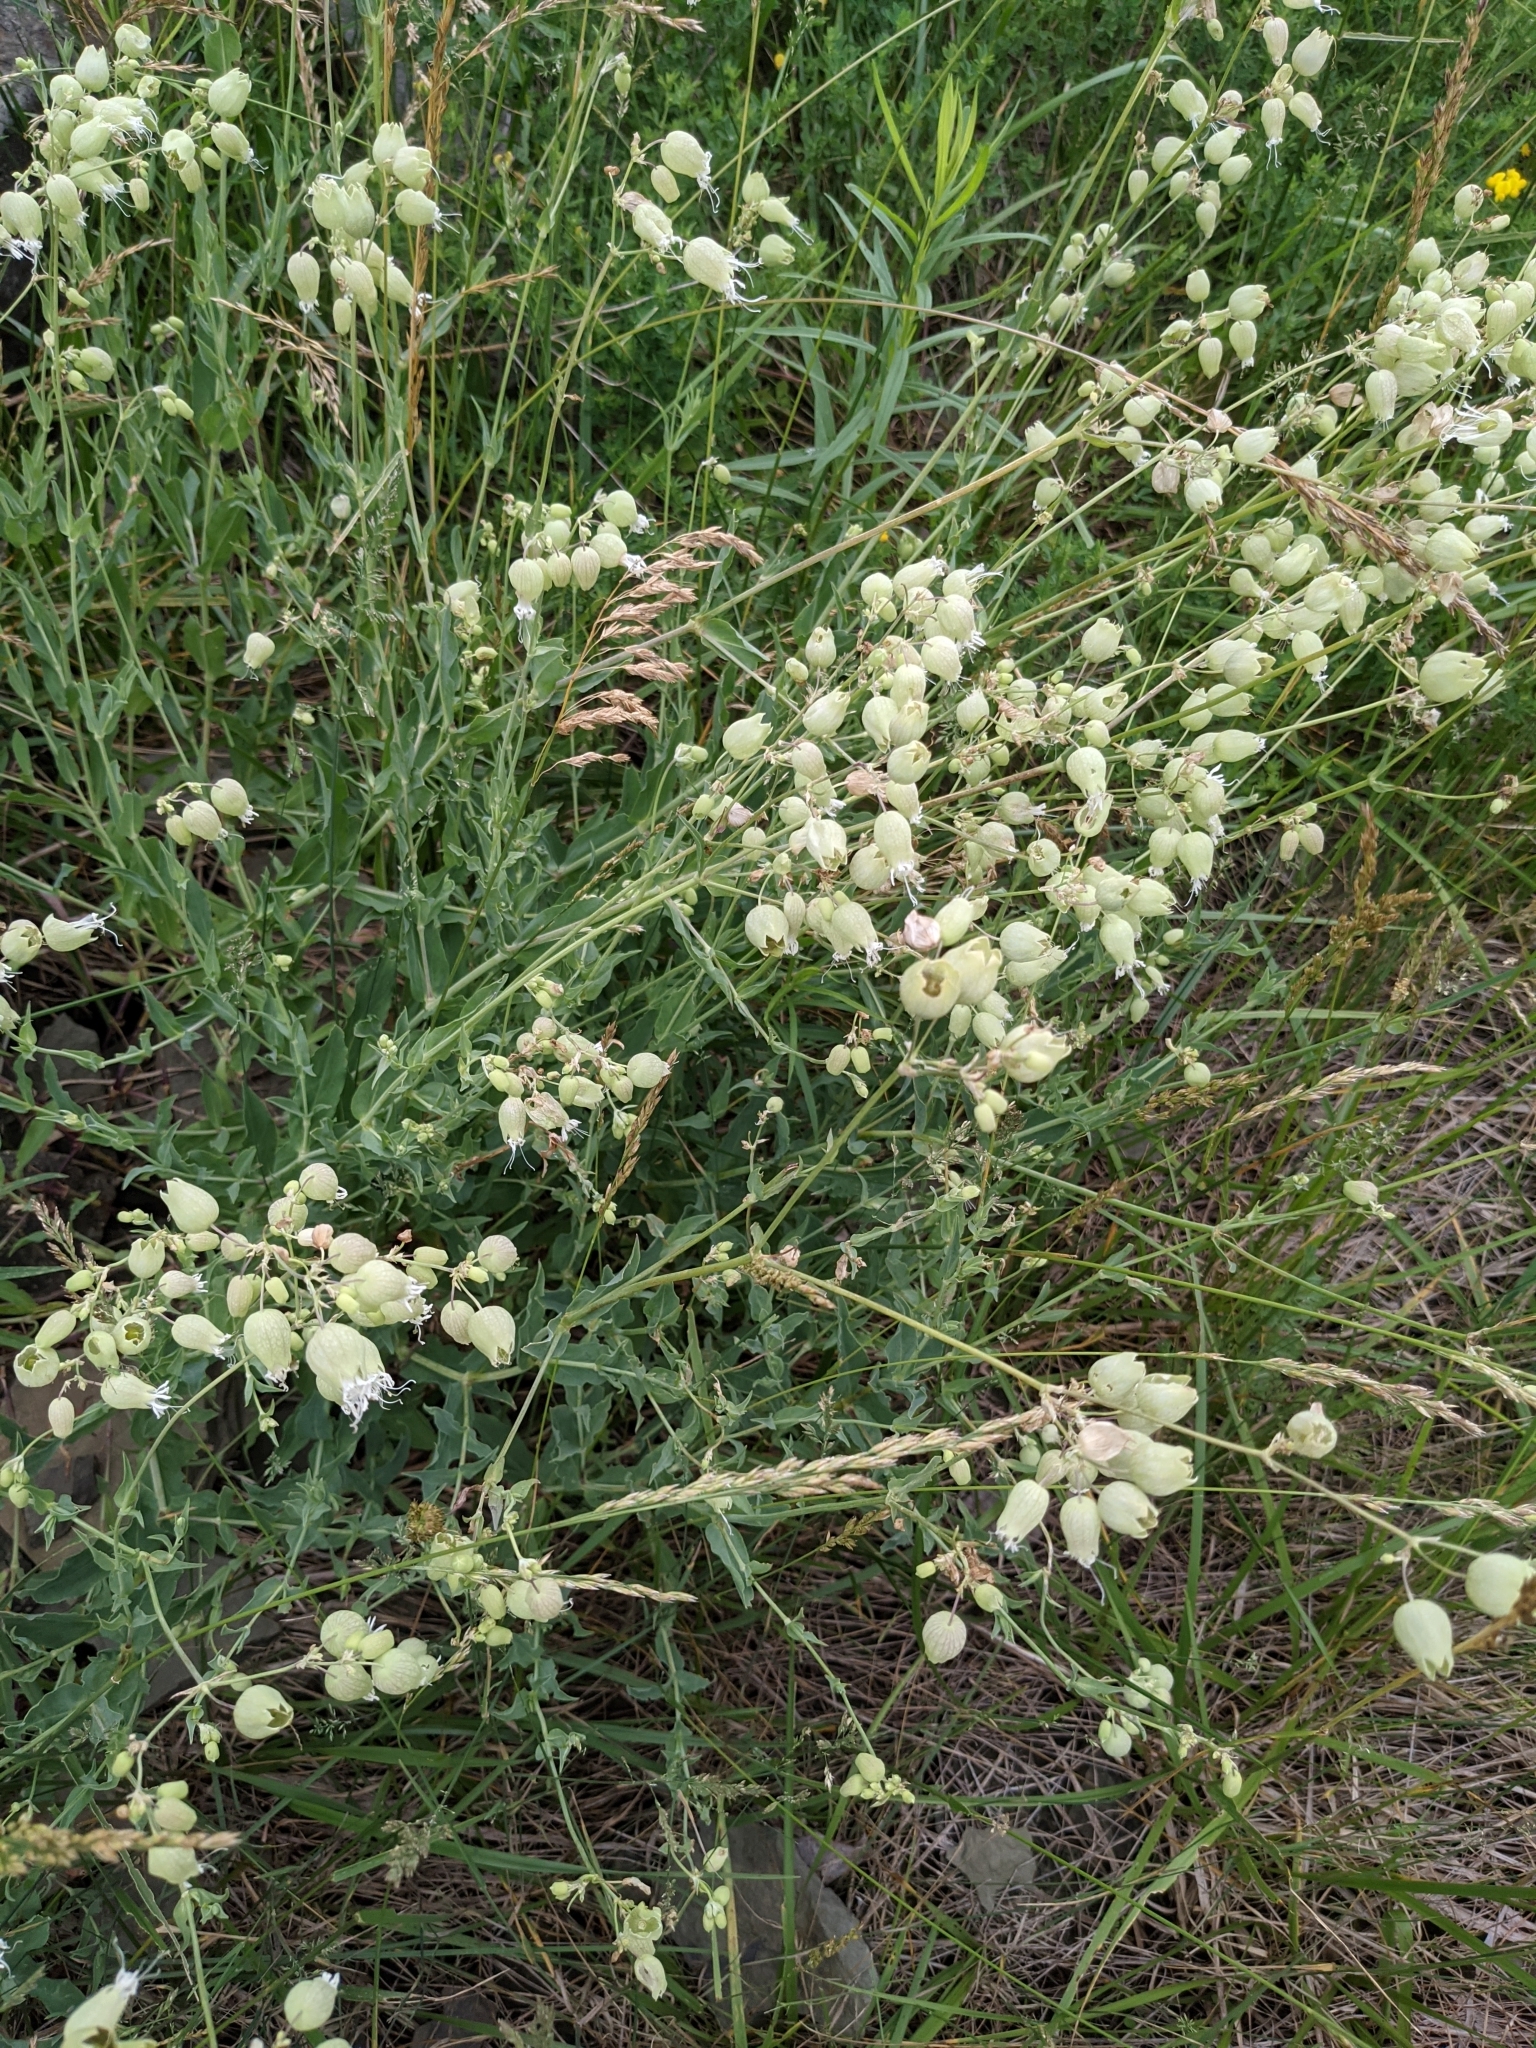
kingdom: Plantae
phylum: Tracheophyta
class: Magnoliopsida
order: Caryophyllales
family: Caryophyllaceae
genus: Silene
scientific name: Silene vulgaris
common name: Bladder campion
